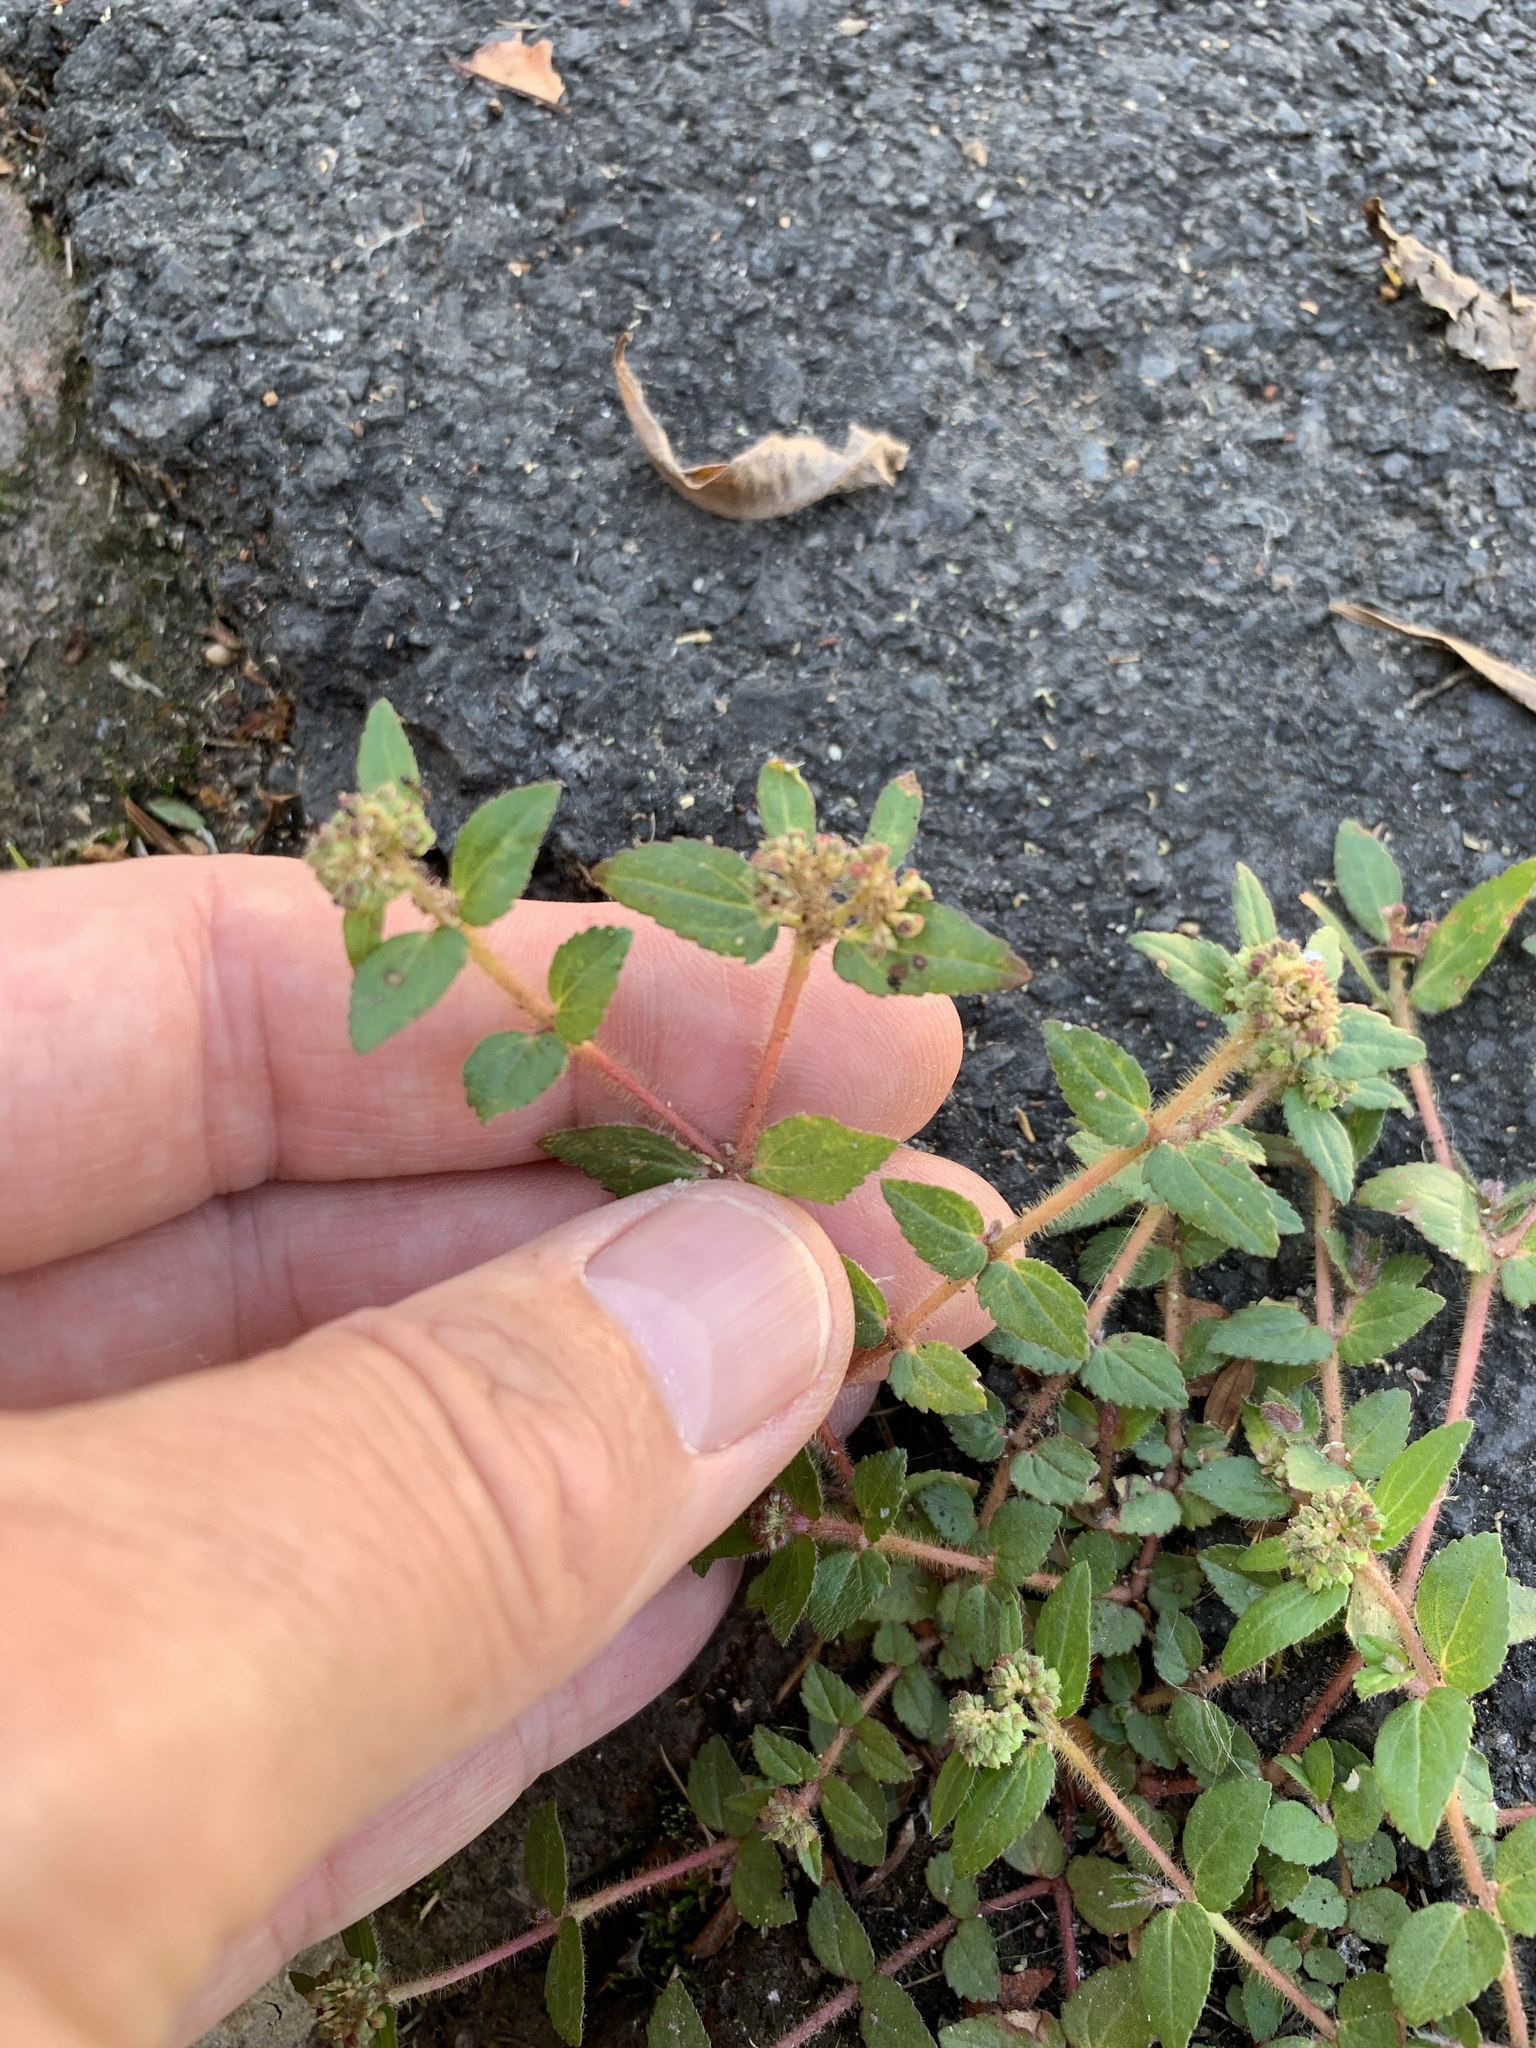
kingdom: Plantae
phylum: Tracheophyta
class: Magnoliopsida
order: Malpighiales
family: Euphorbiaceae
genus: Euphorbia
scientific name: Euphorbia ophthalmica
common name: Florida hammock sandmat
